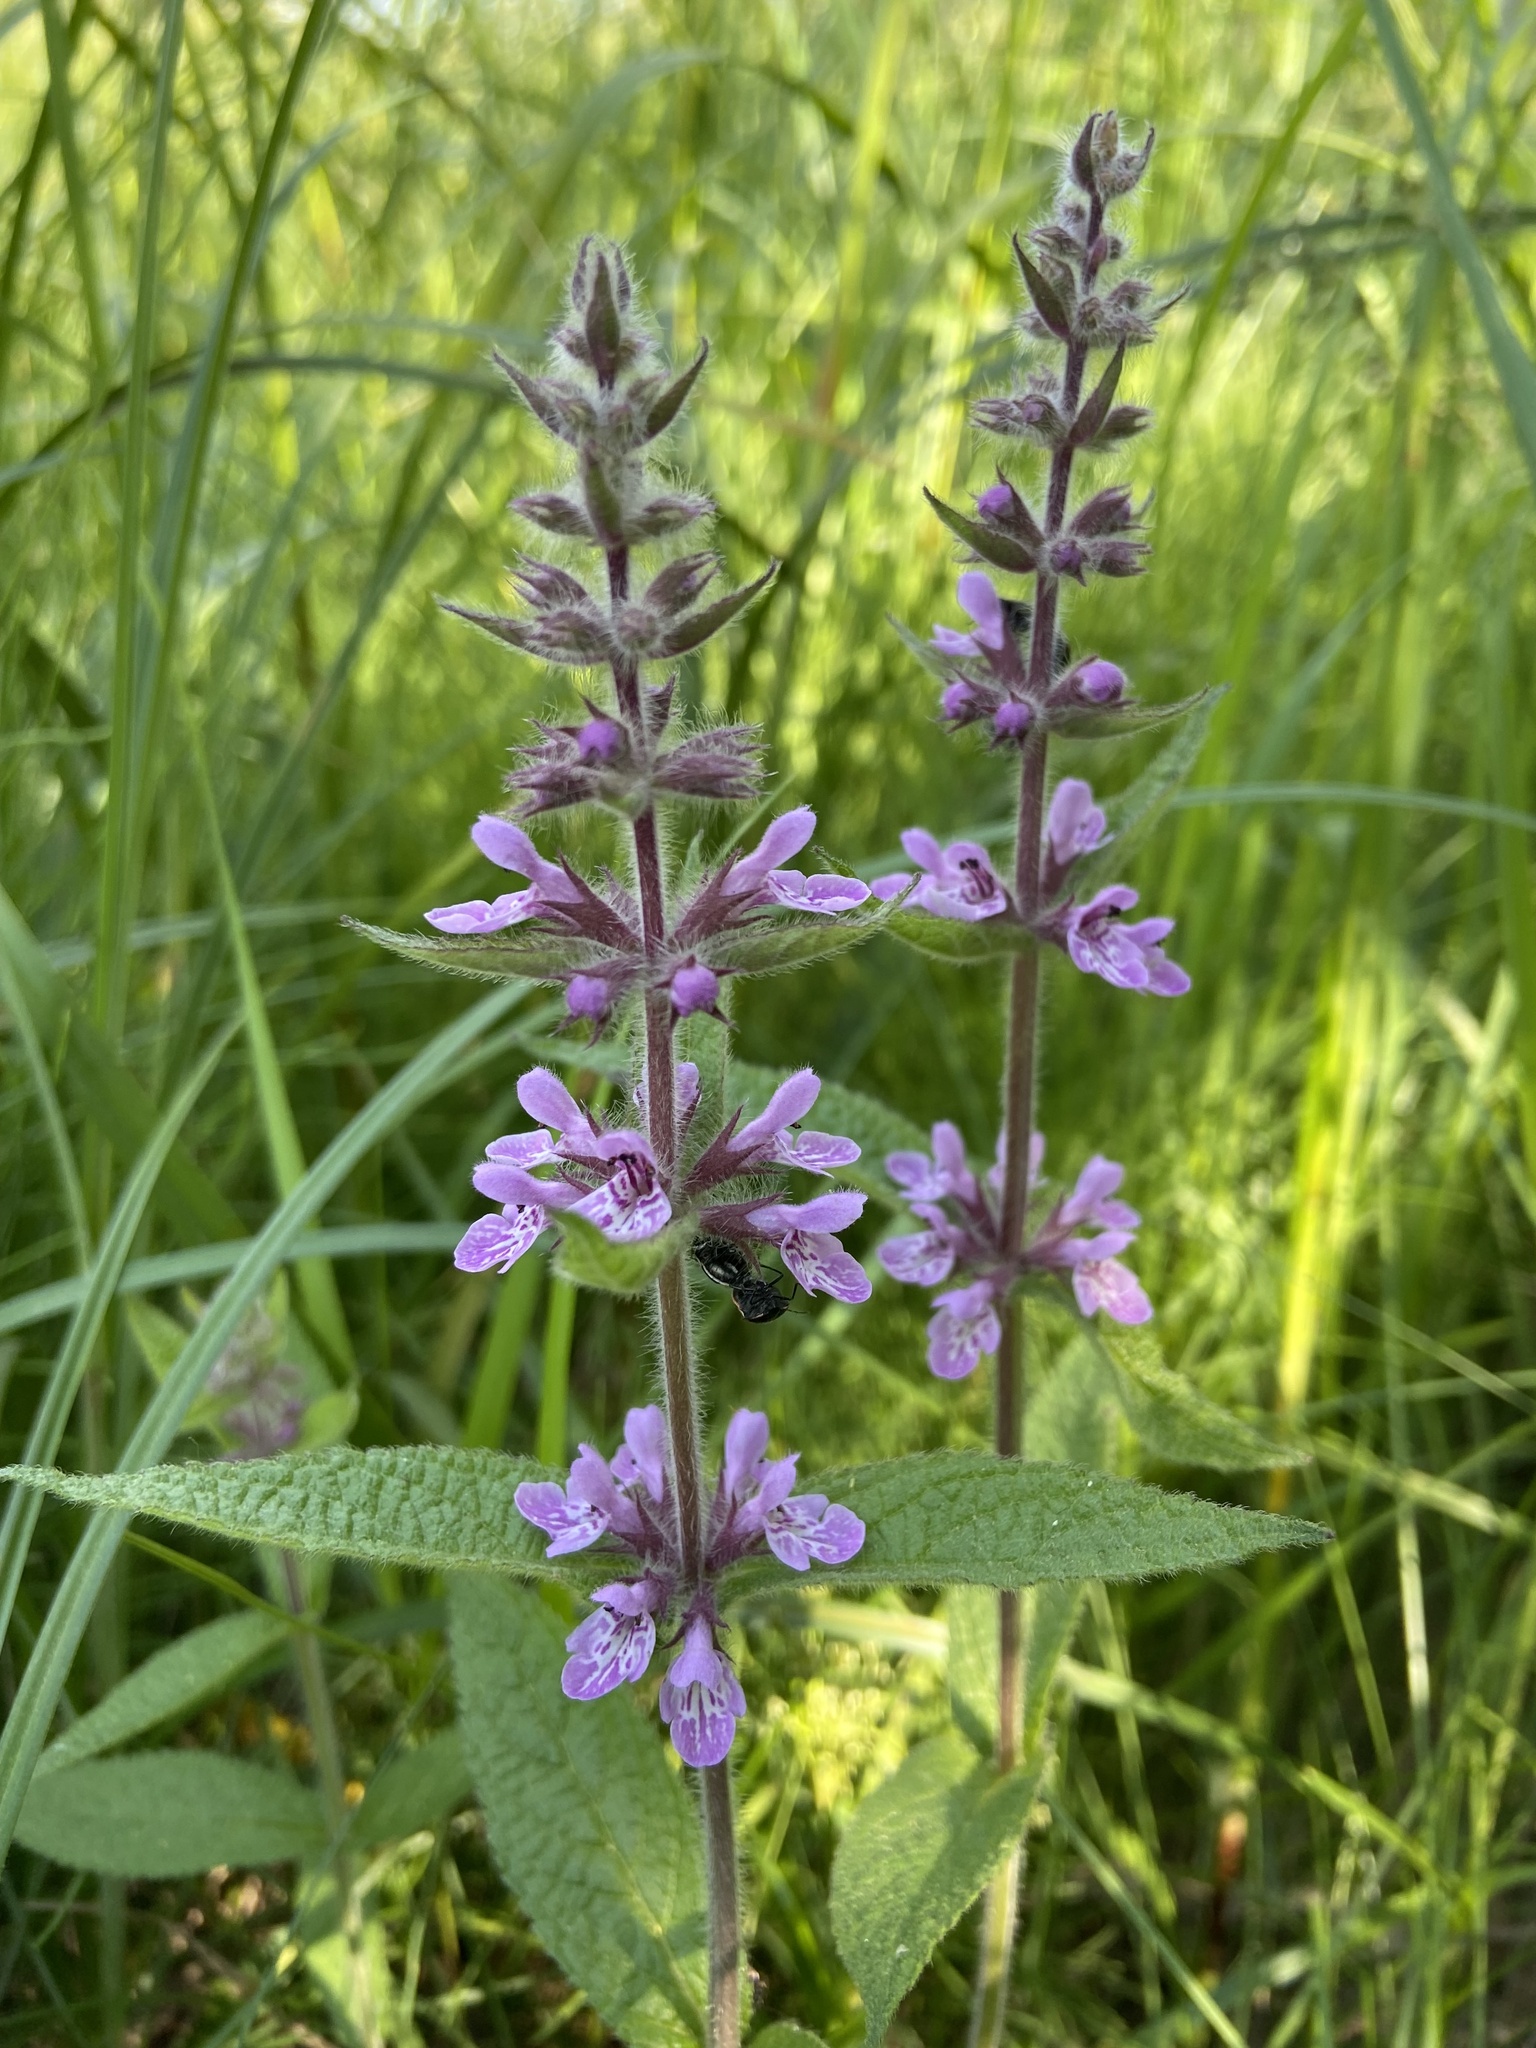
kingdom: Plantae
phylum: Tracheophyta
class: Magnoliopsida
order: Lamiales
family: Lamiaceae
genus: Stachys
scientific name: Stachys pilosa
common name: Hairy hedge-nettle
